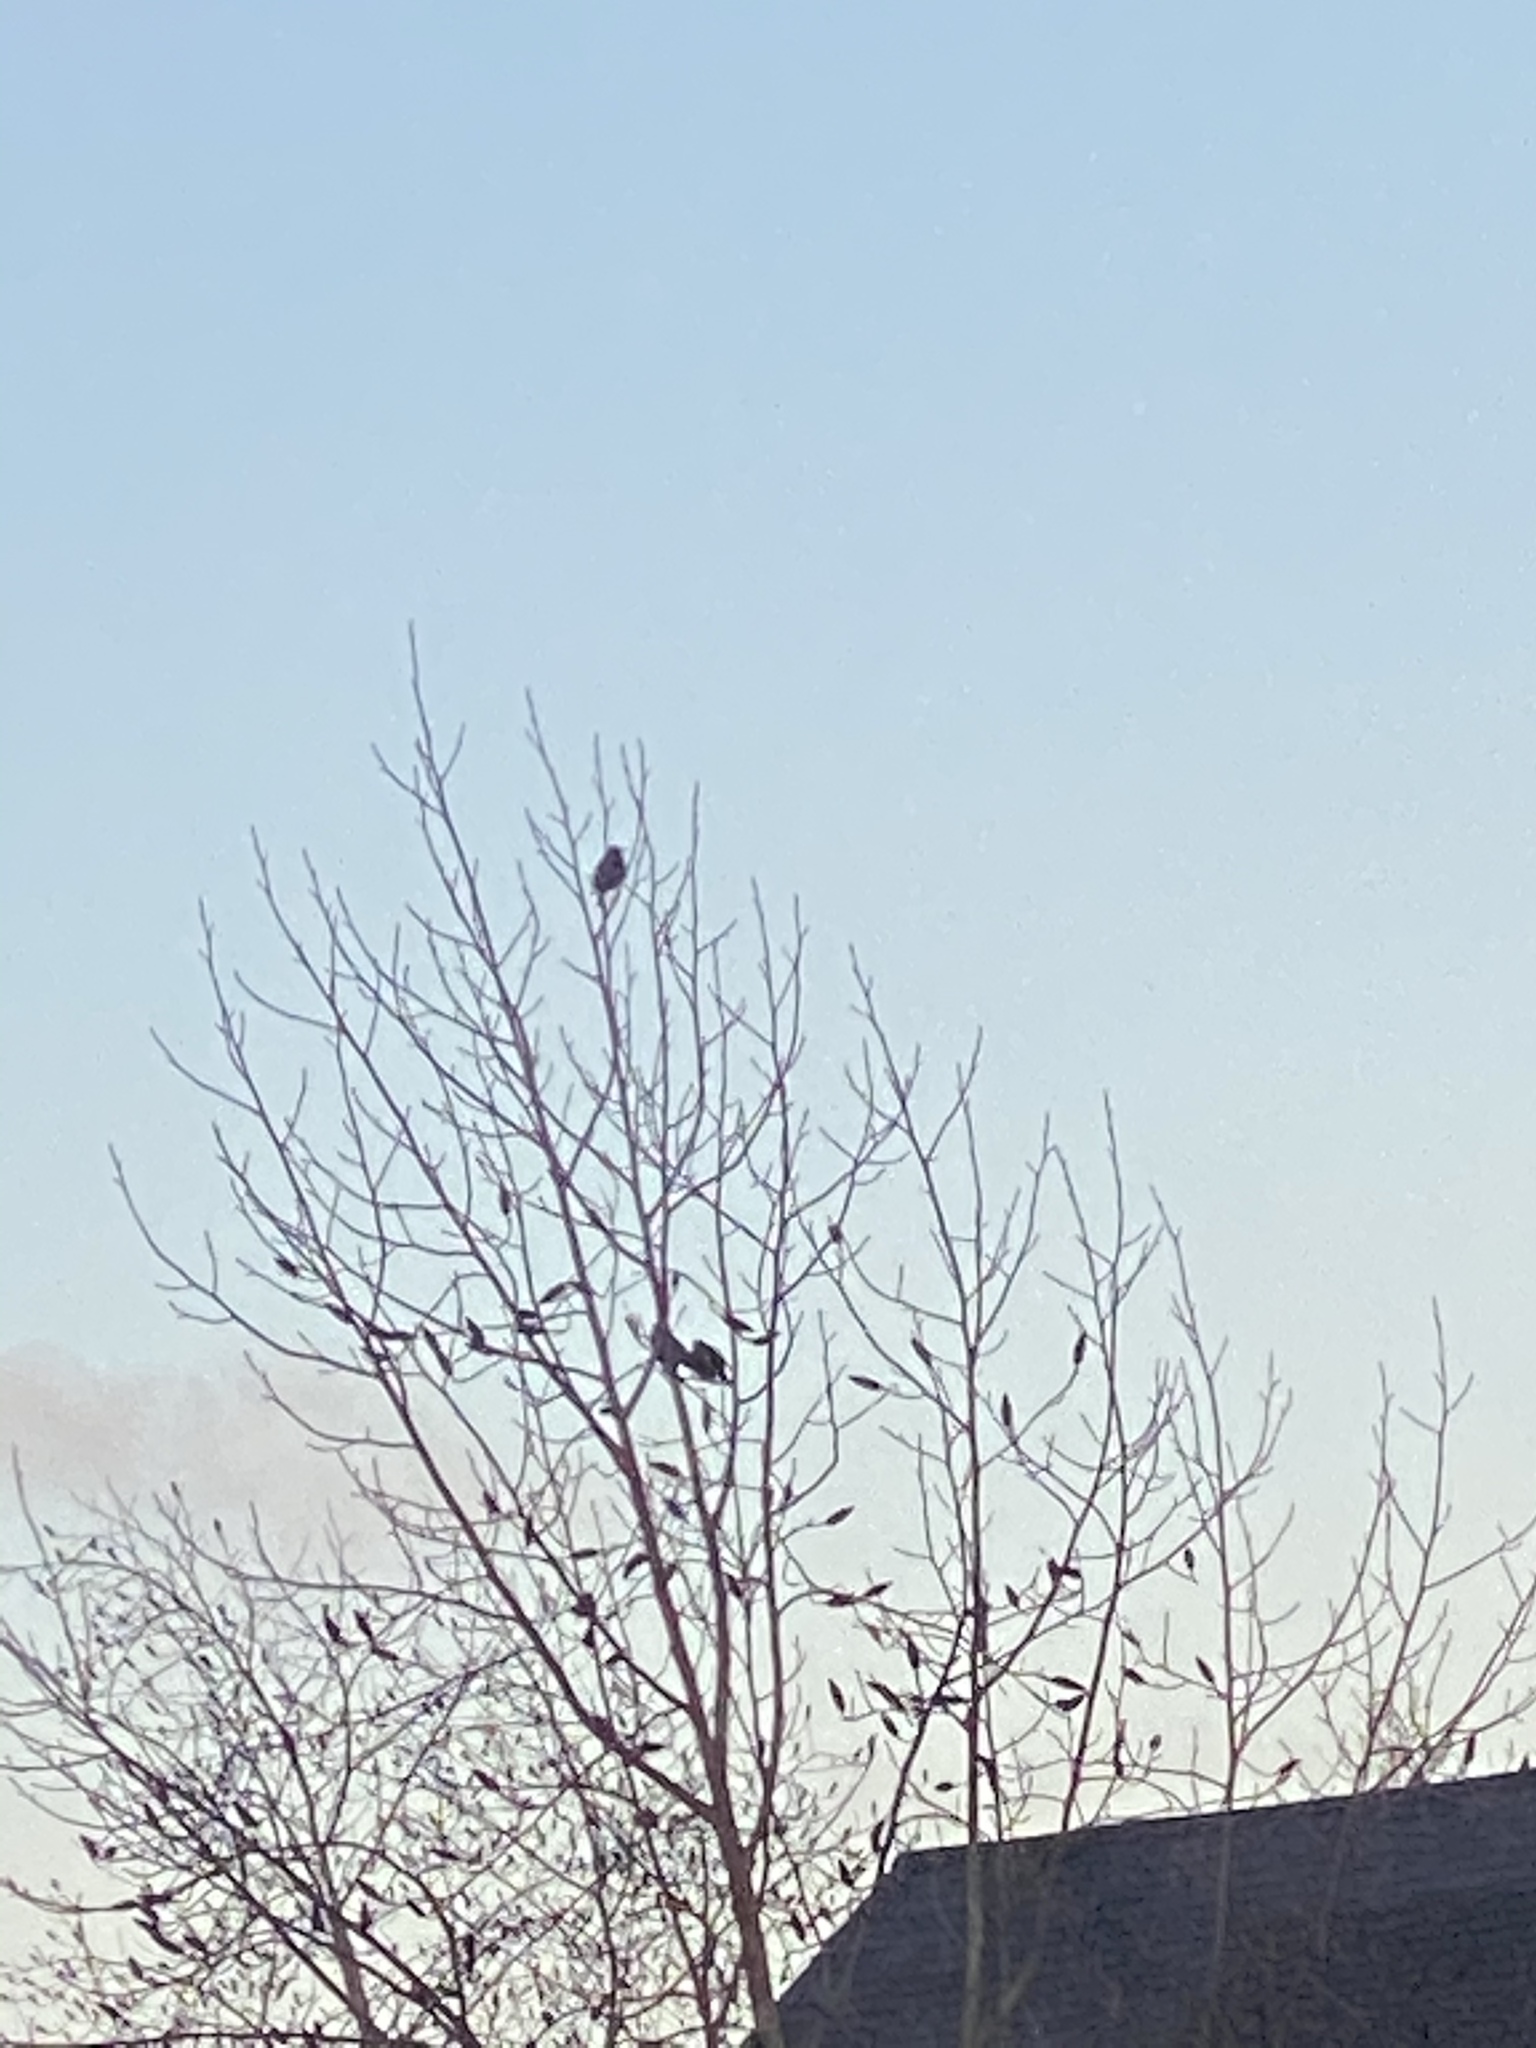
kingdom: Animalia
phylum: Chordata
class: Aves
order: Passeriformes
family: Sturnidae
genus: Sturnus
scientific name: Sturnus vulgaris
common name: Common starling
